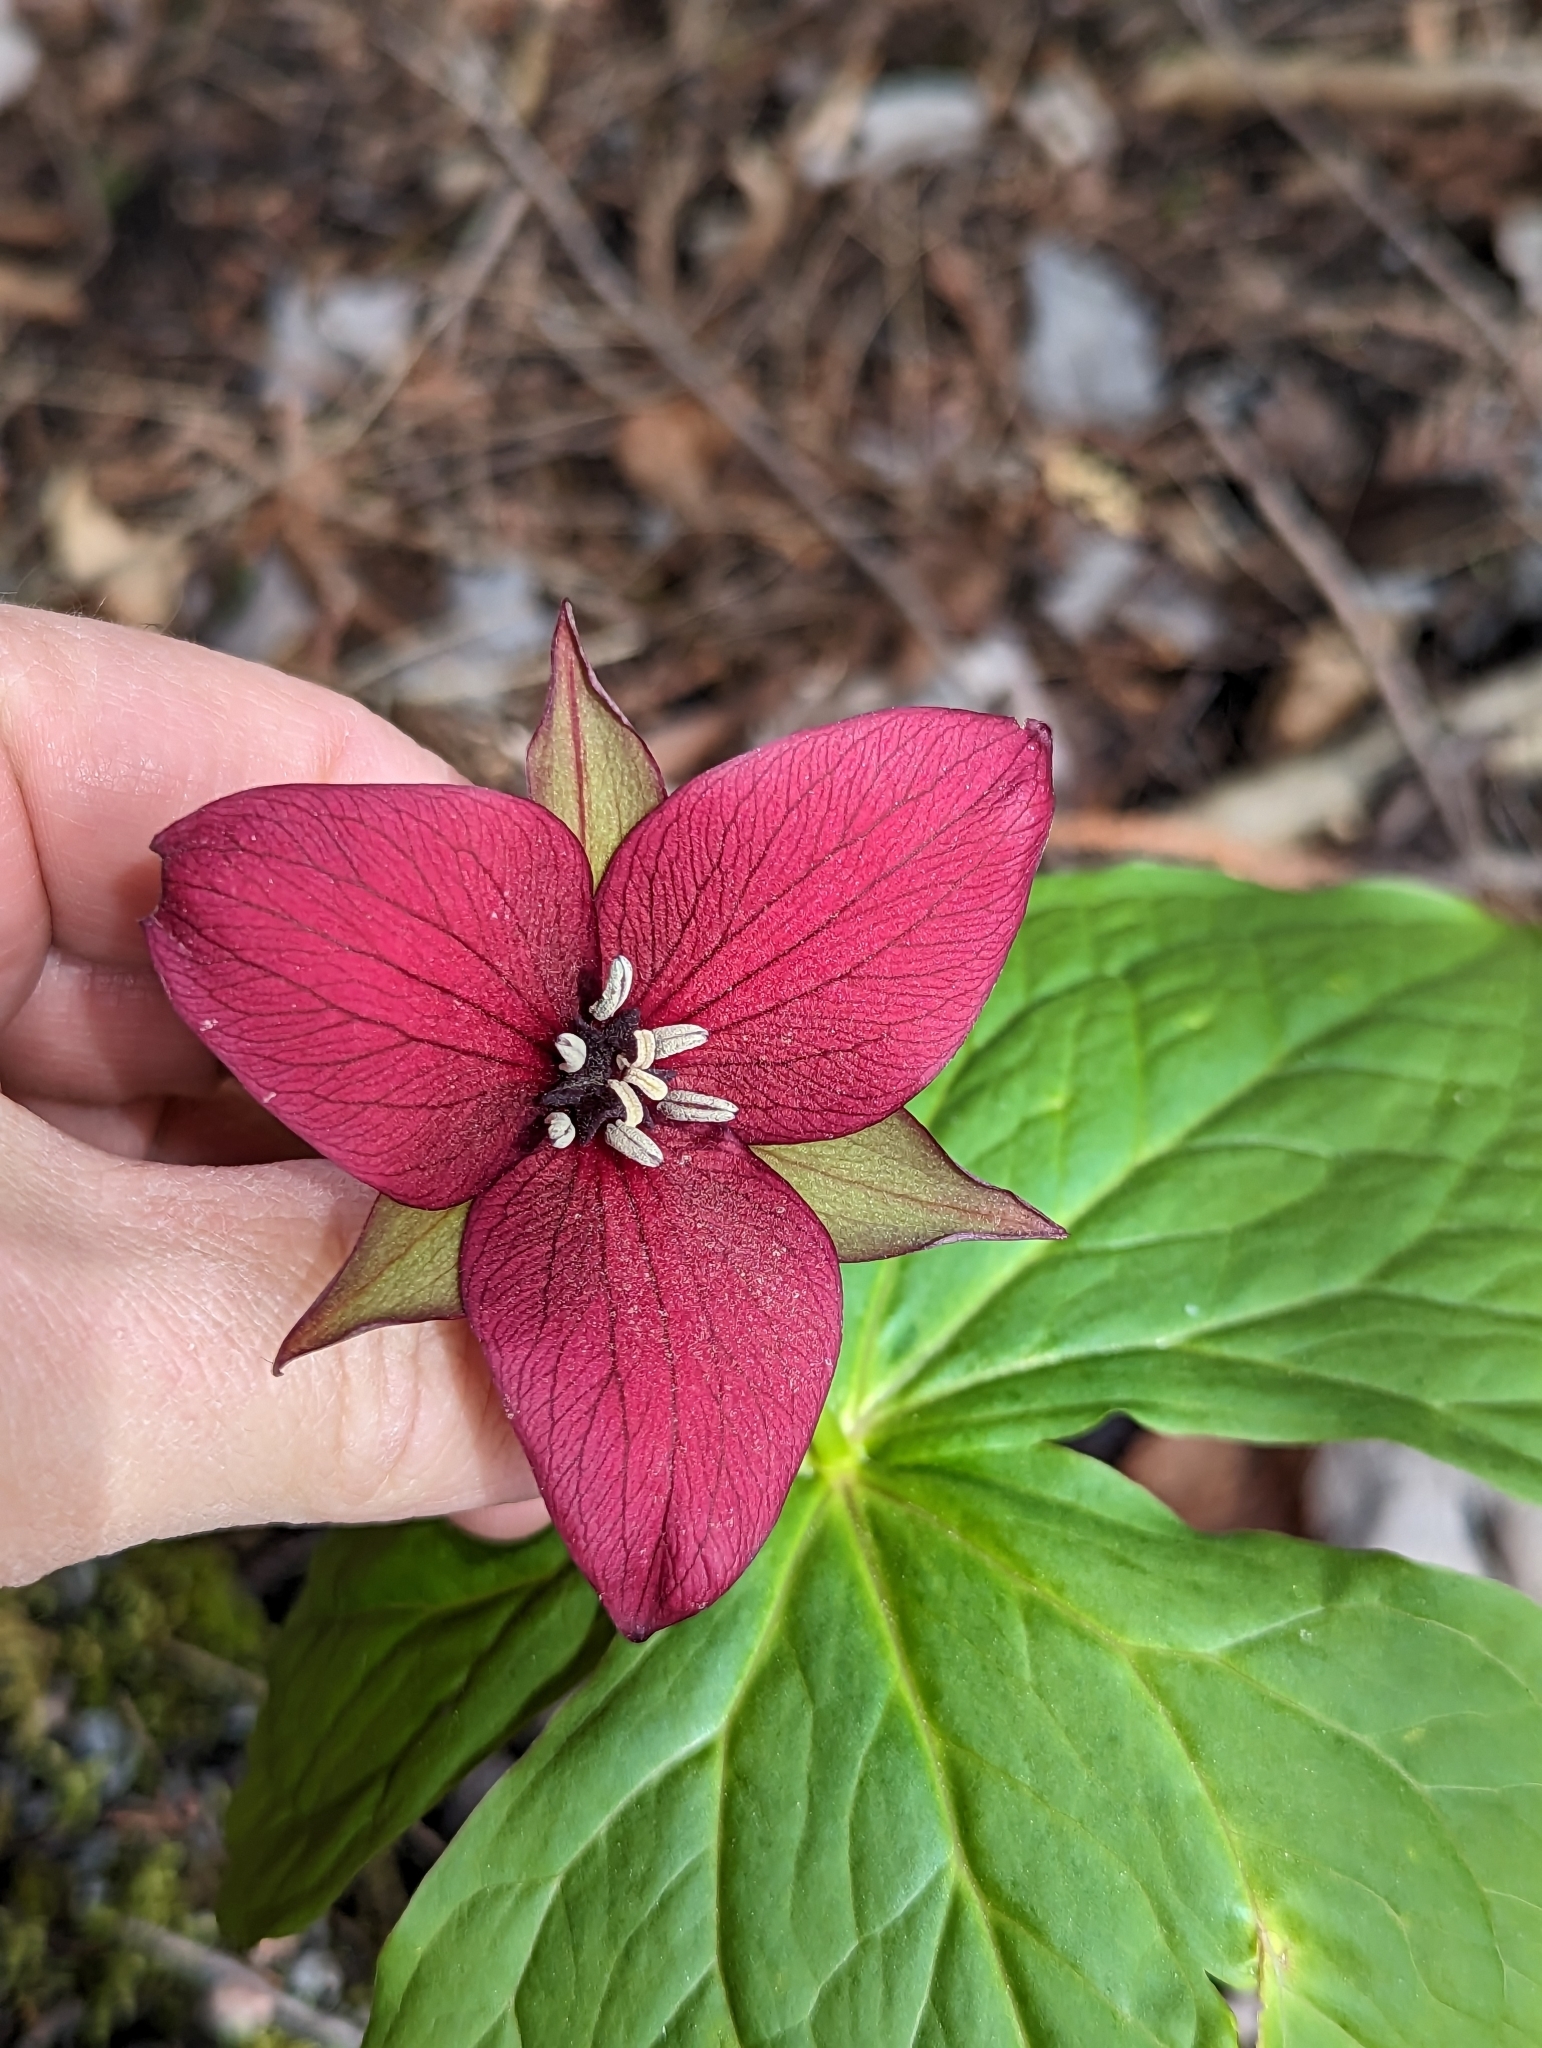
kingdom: Plantae
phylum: Tracheophyta
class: Liliopsida
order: Liliales
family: Melanthiaceae
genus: Trillium
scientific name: Trillium erectum
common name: Purple trillium
